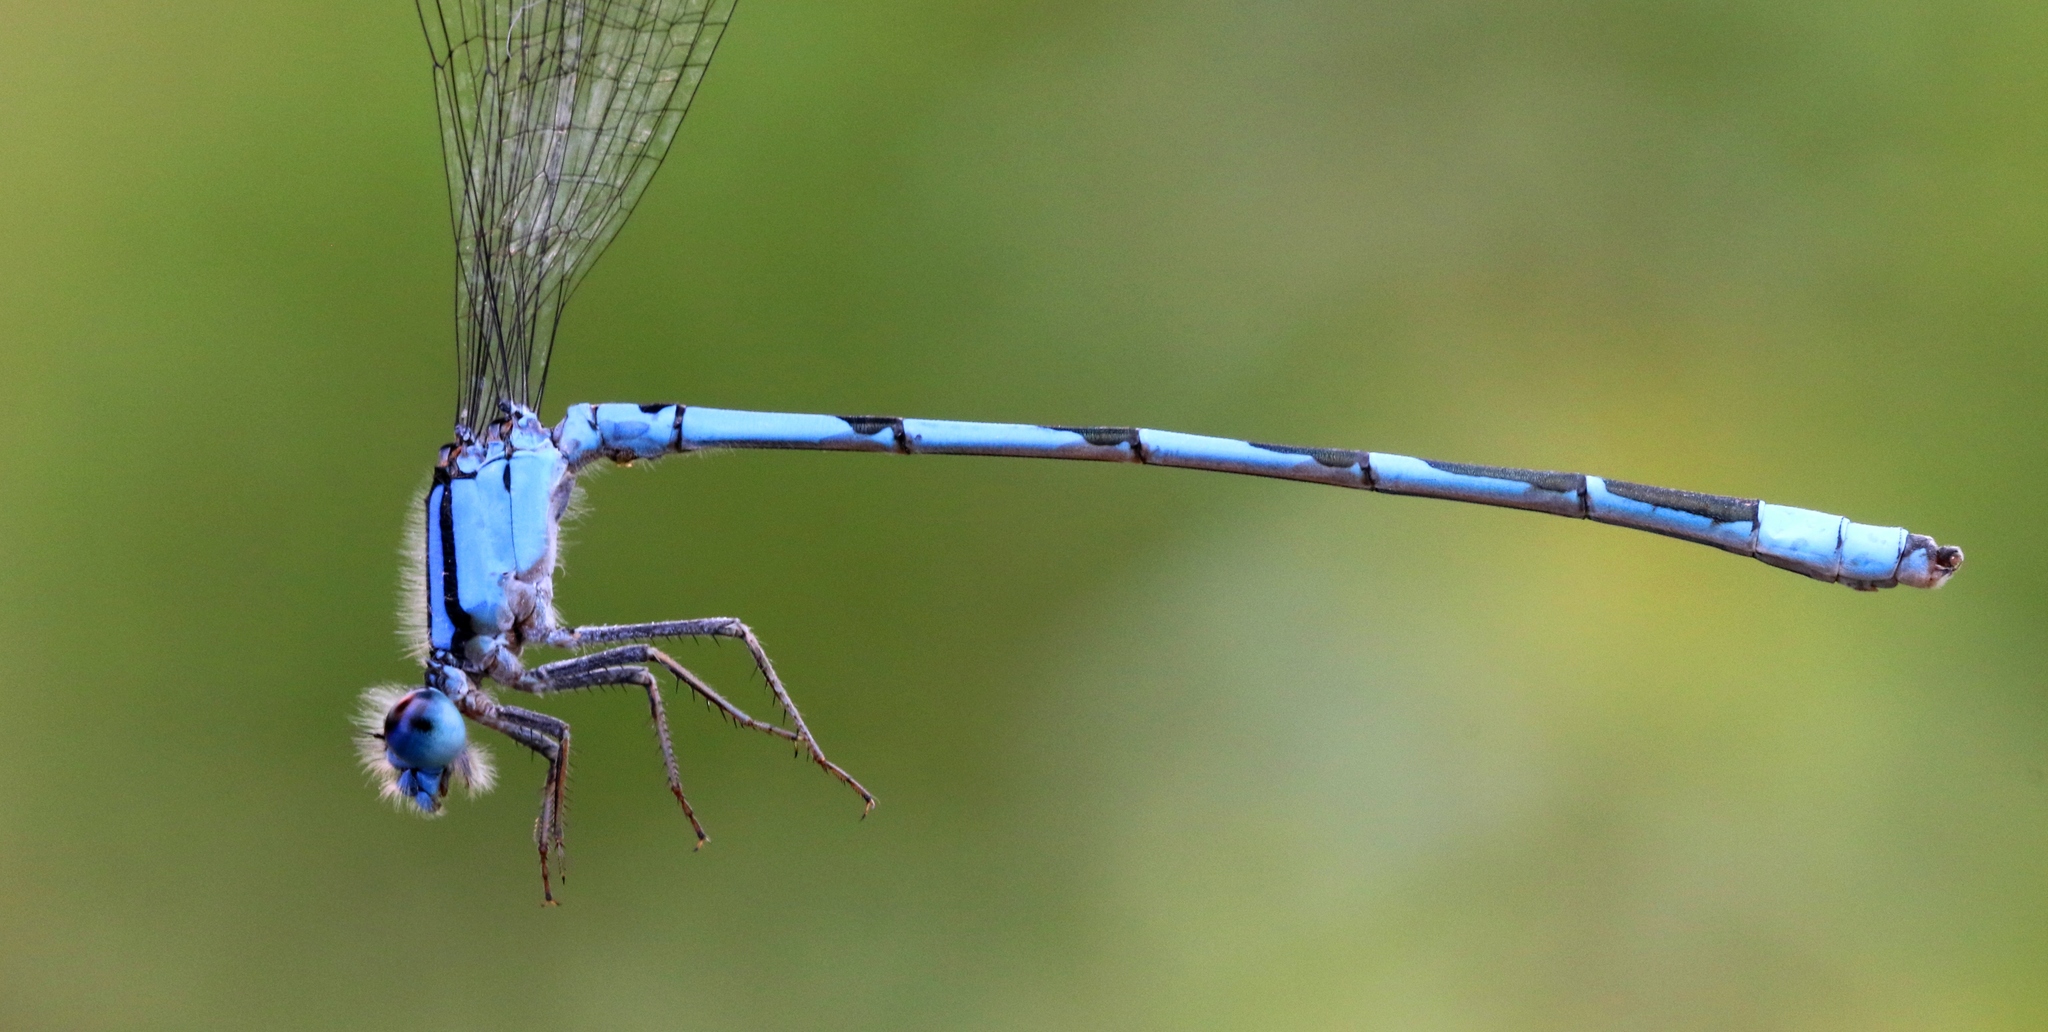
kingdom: Animalia
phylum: Arthropoda
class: Insecta
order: Odonata
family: Coenagrionidae
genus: Enallagma
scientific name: Enallagma civile
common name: Damselfly
